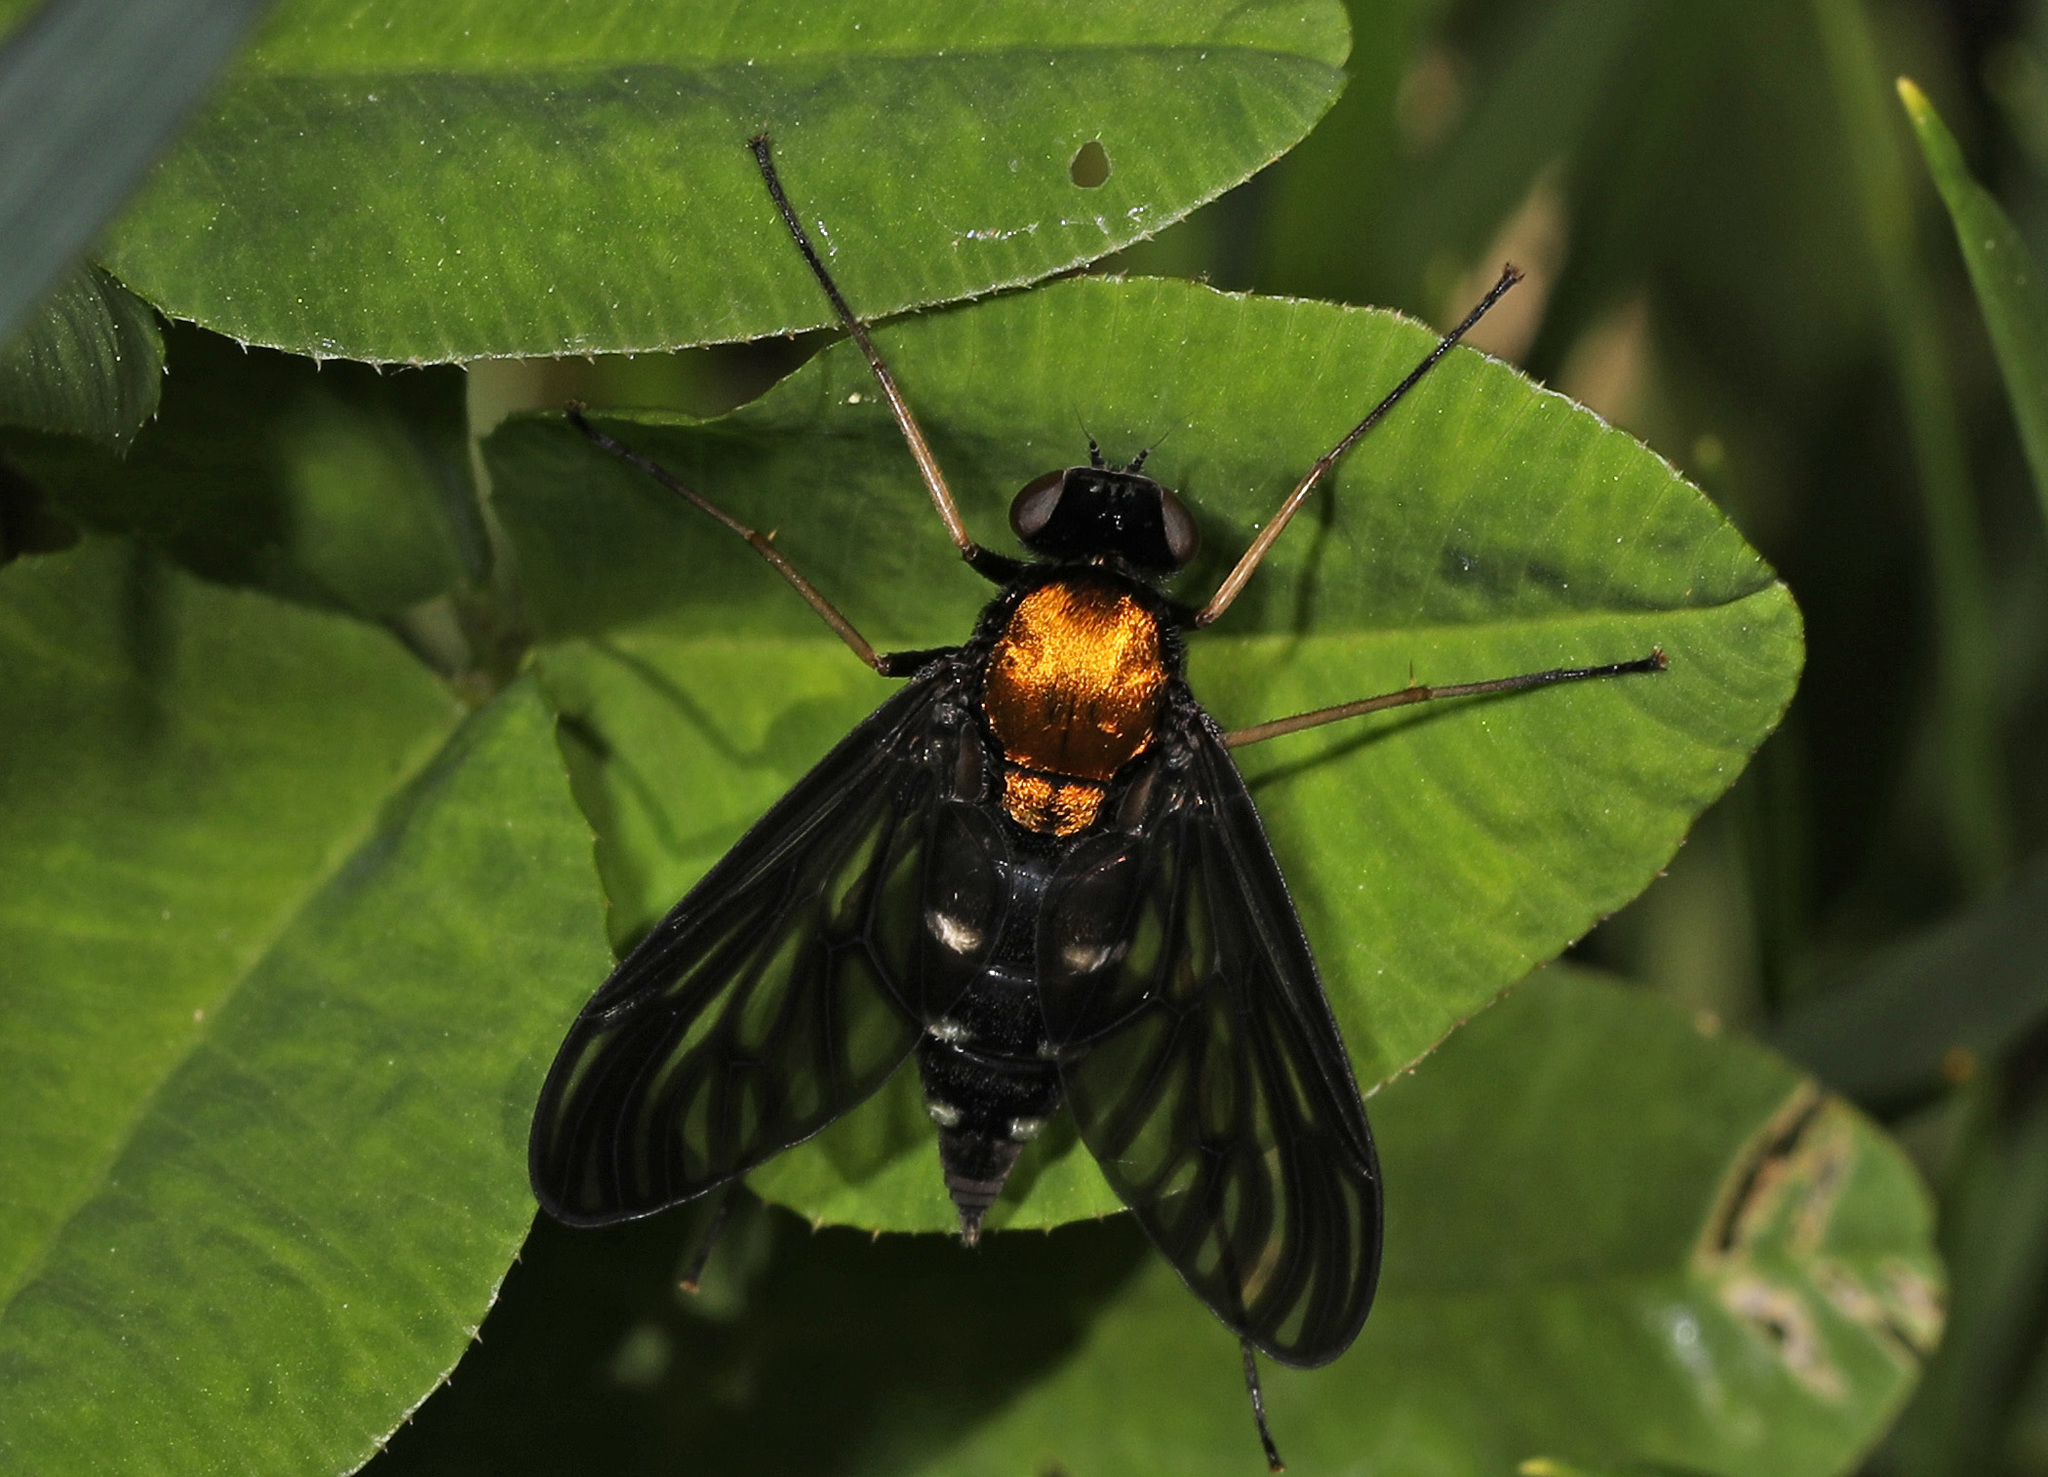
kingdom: Animalia
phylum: Arthropoda
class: Insecta
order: Diptera
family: Rhagionidae
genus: Chrysopilus
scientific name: Chrysopilus thoracicus
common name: Golden-backed snipe fly
